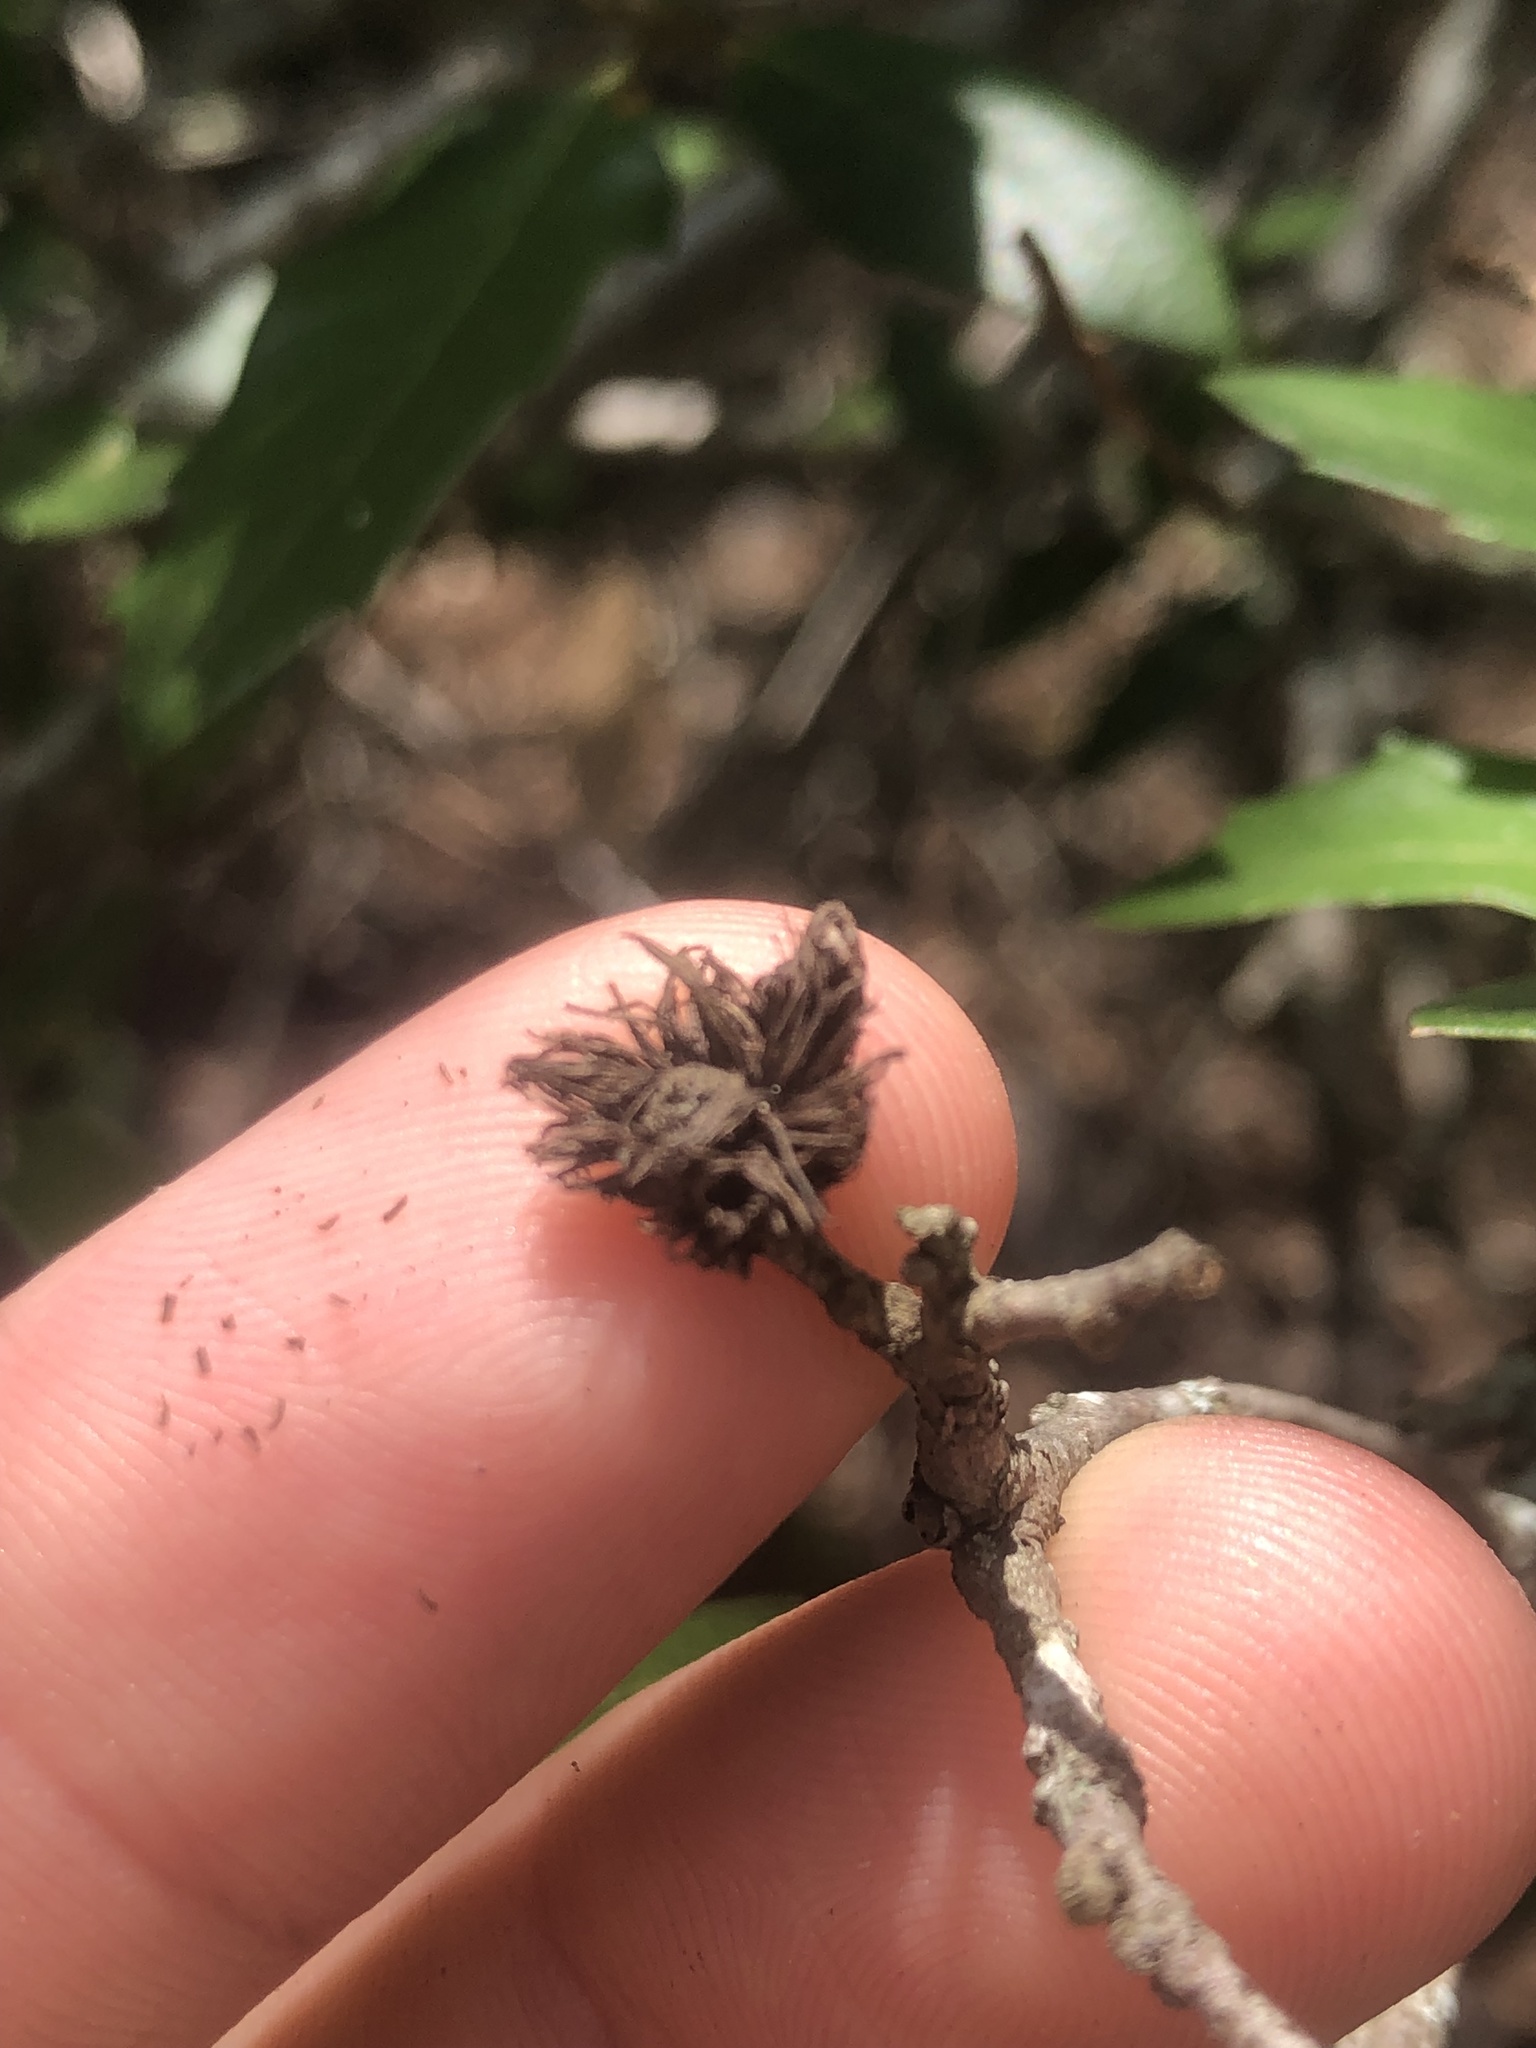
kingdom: Animalia
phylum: Arthropoda
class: Insecta
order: Hymenoptera
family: Cynipidae
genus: Andricus
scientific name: Andricus quercusfoliatus
